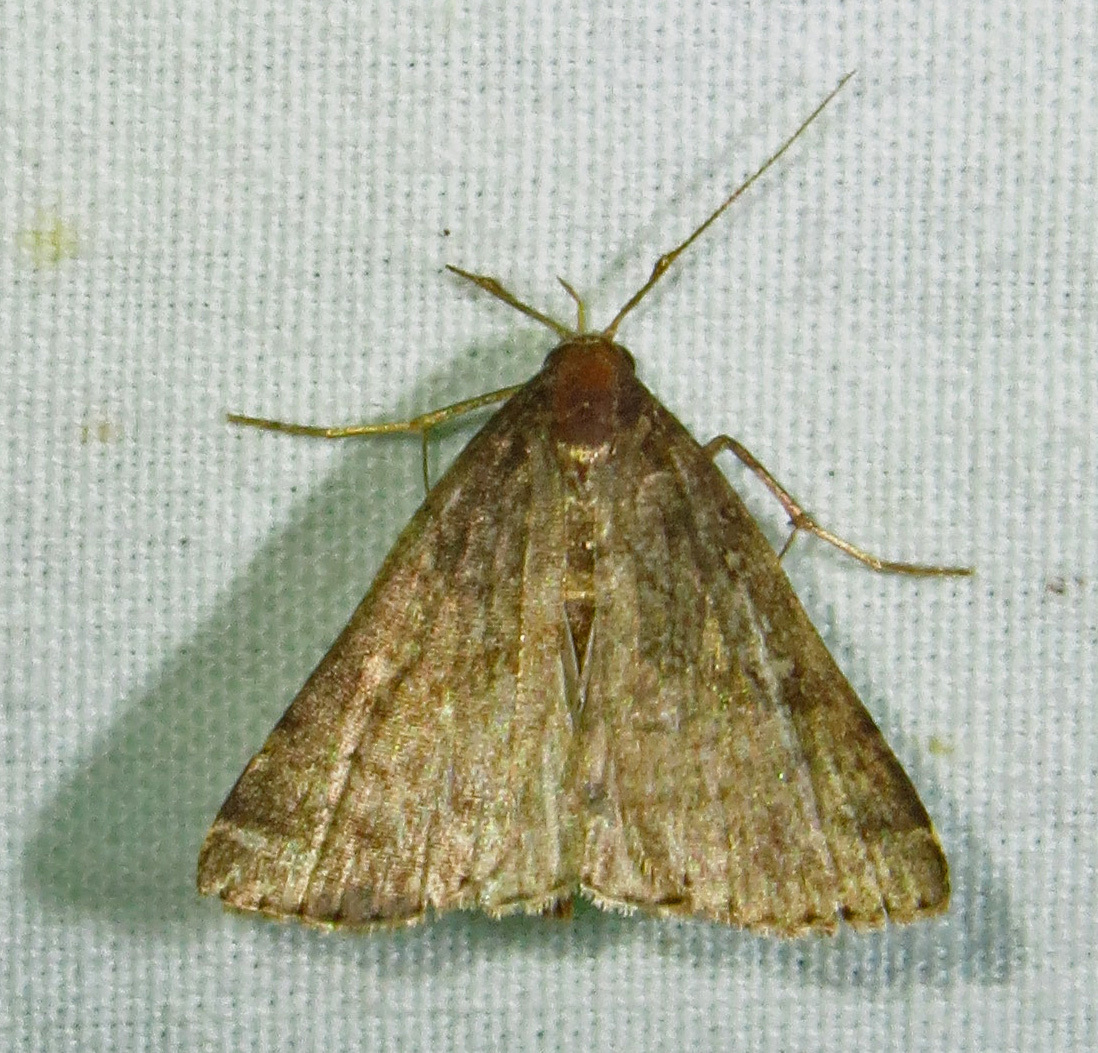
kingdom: Animalia
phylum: Arthropoda
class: Insecta
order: Lepidoptera
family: Erebidae
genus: Tetanolita
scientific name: Tetanolita floridana
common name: Florida tetanolita moth
